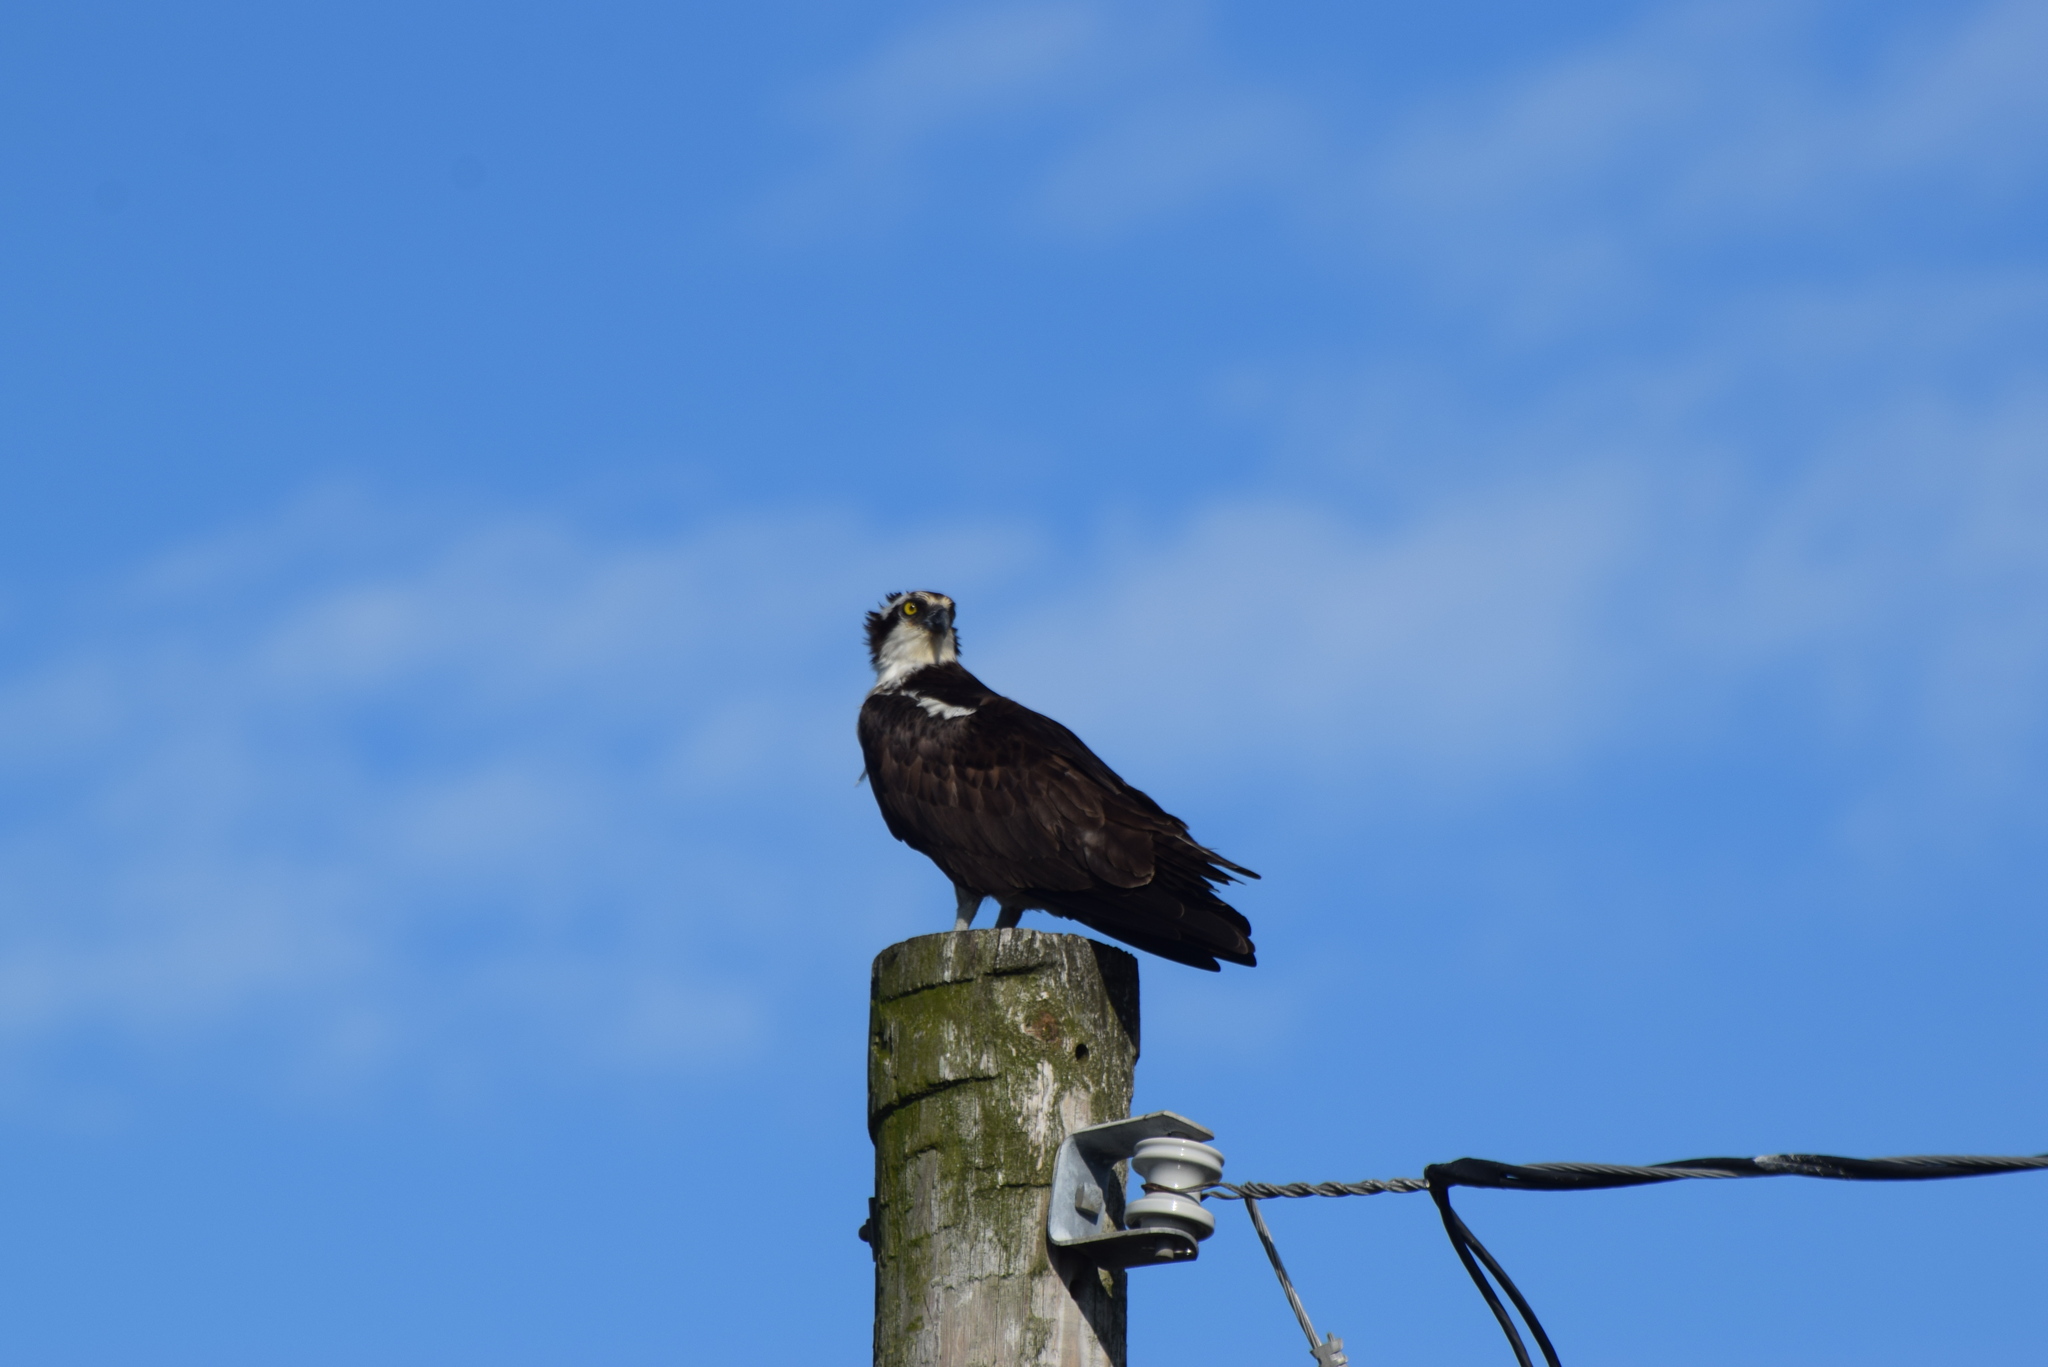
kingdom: Animalia
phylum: Chordata
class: Aves
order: Accipitriformes
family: Pandionidae
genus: Pandion
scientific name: Pandion haliaetus
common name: Osprey
